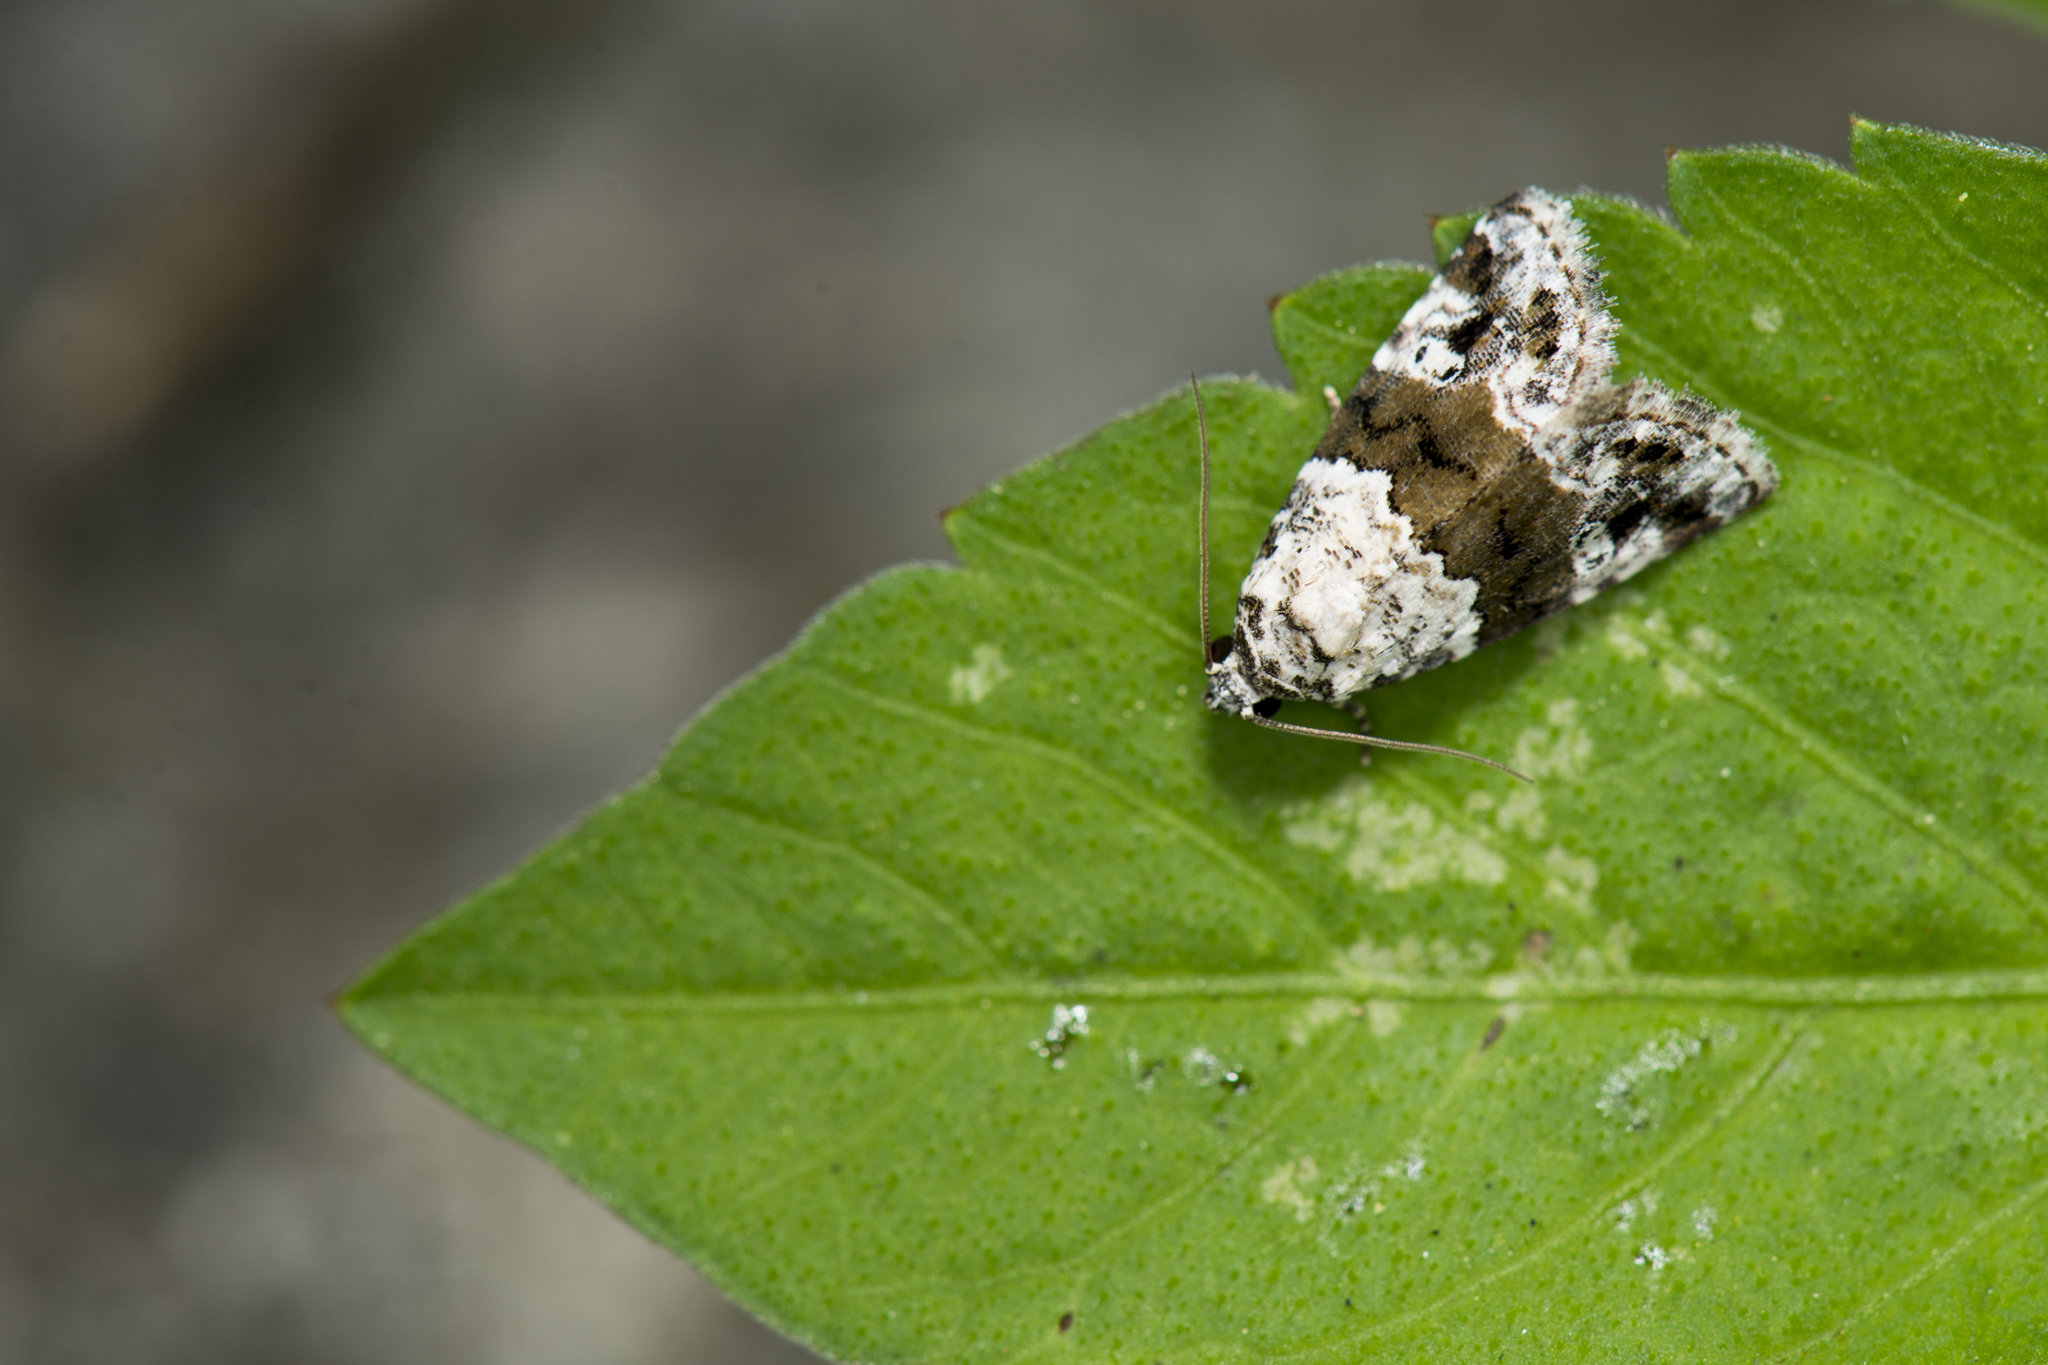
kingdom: Animalia
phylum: Arthropoda
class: Insecta
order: Lepidoptera
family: Noctuidae
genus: Maliattha
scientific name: Maliattha signifera
